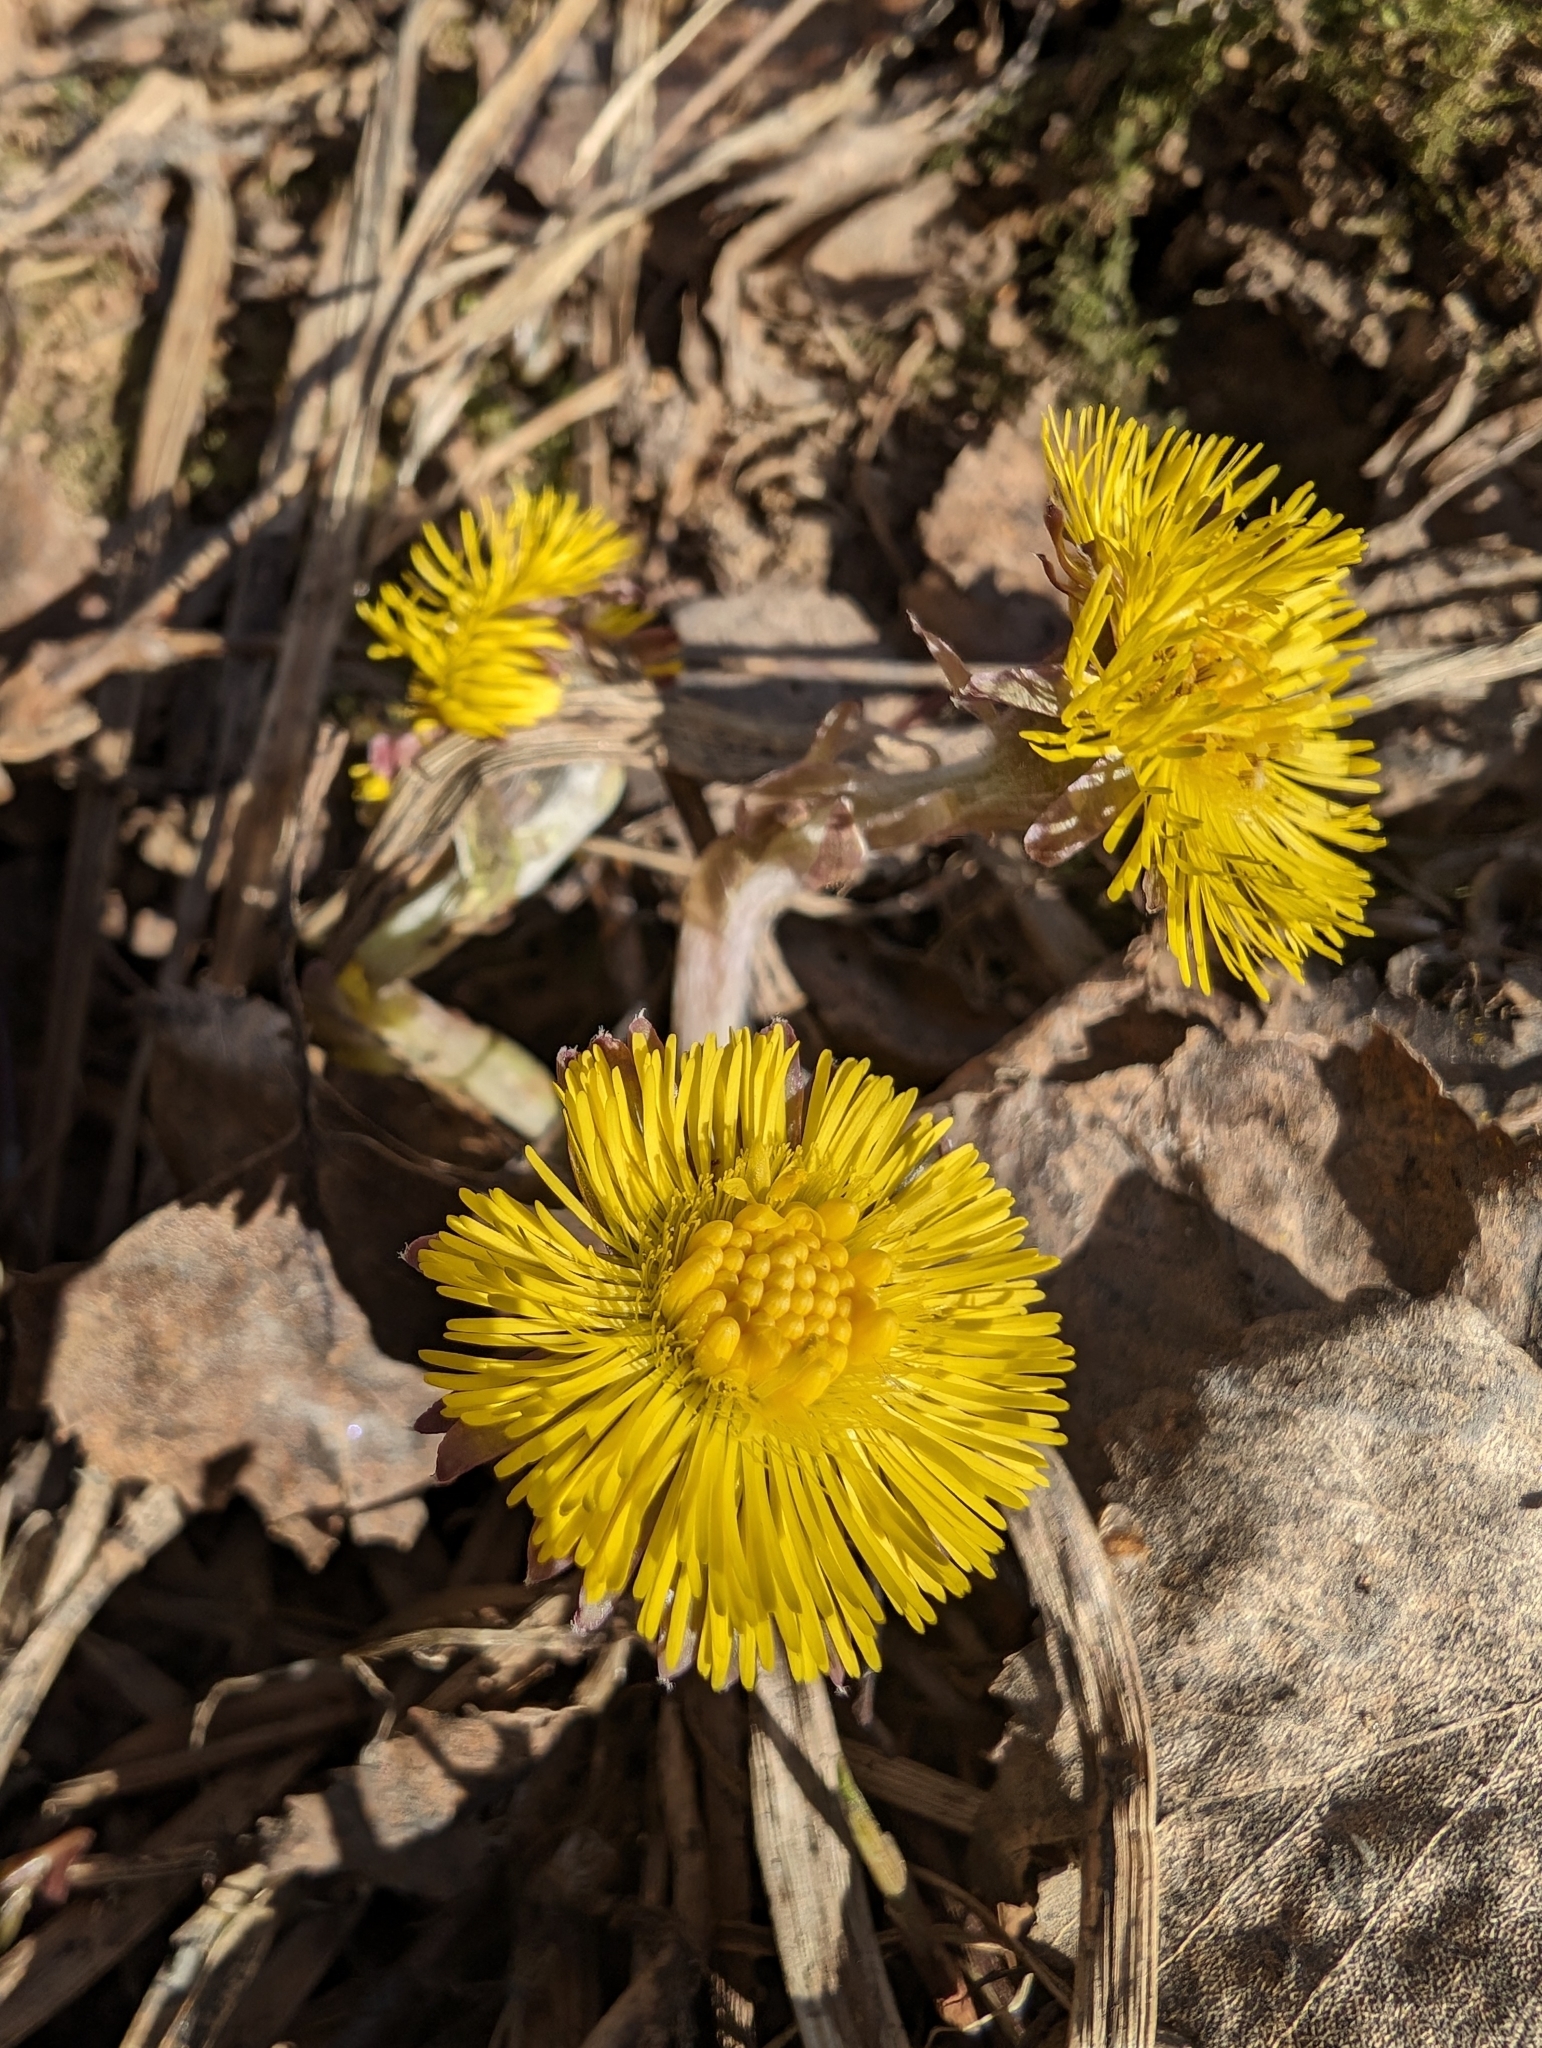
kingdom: Plantae
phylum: Tracheophyta
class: Magnoliopsida
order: Asterales
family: Asteraceae
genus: Tussilago
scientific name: Tussilago farfara
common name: Coltsfoot
